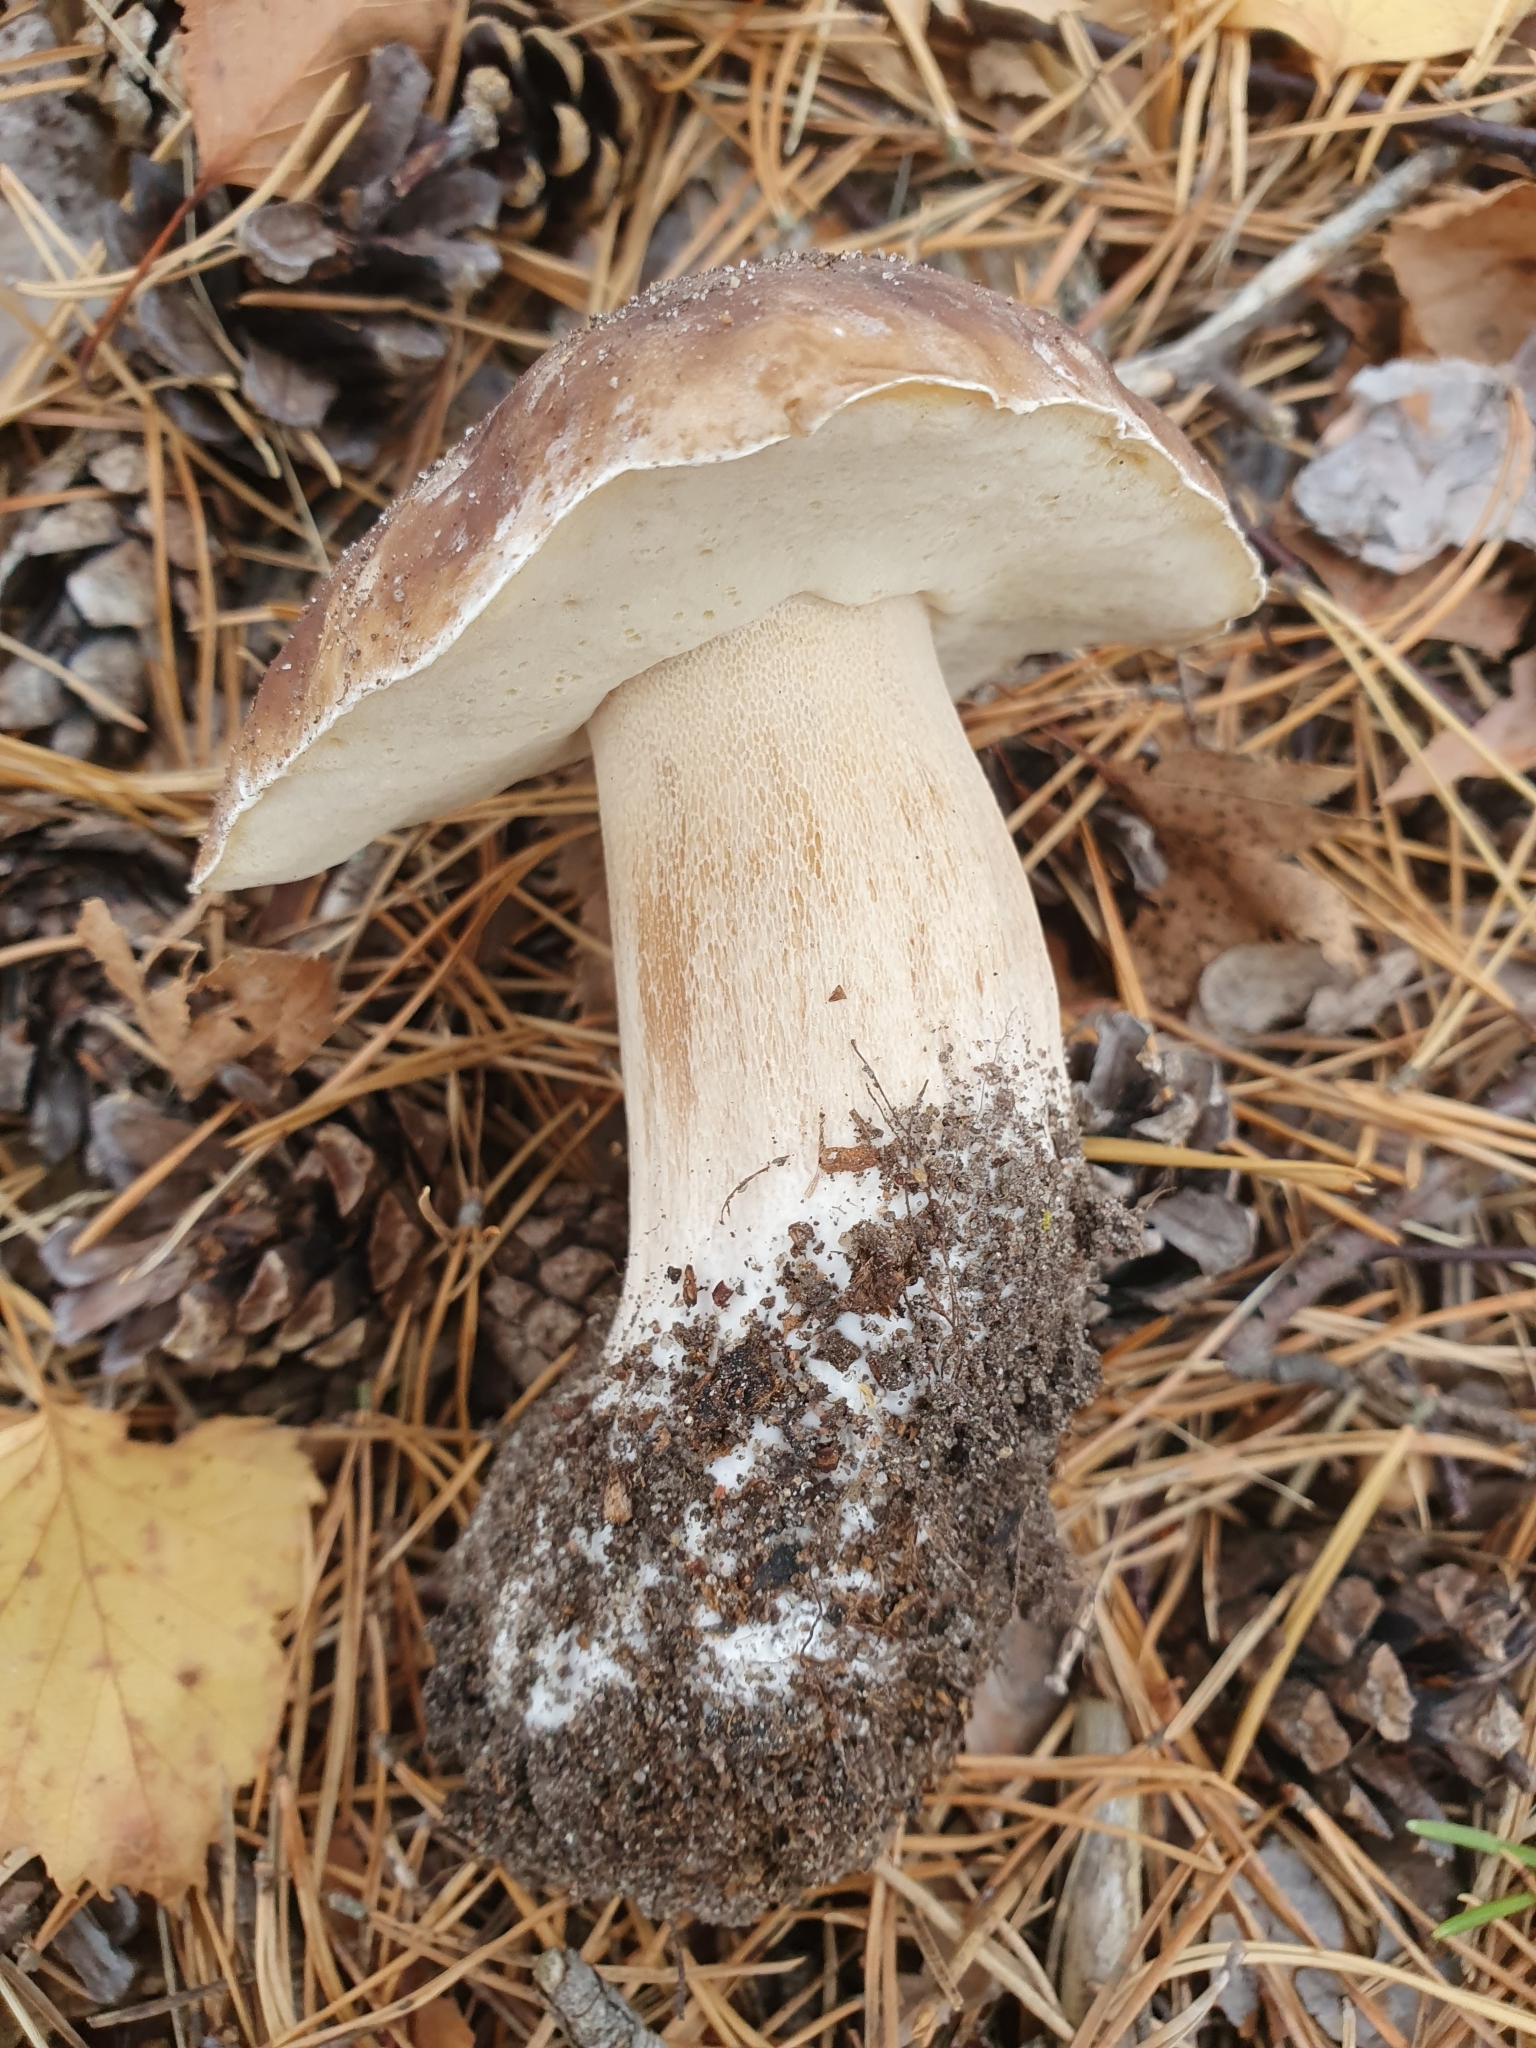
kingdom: Fungi
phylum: Basidiomycota
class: Agaricomycetes
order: Boletales
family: Boletaceae
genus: Boletus
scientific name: Boletus edulis
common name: Cep
